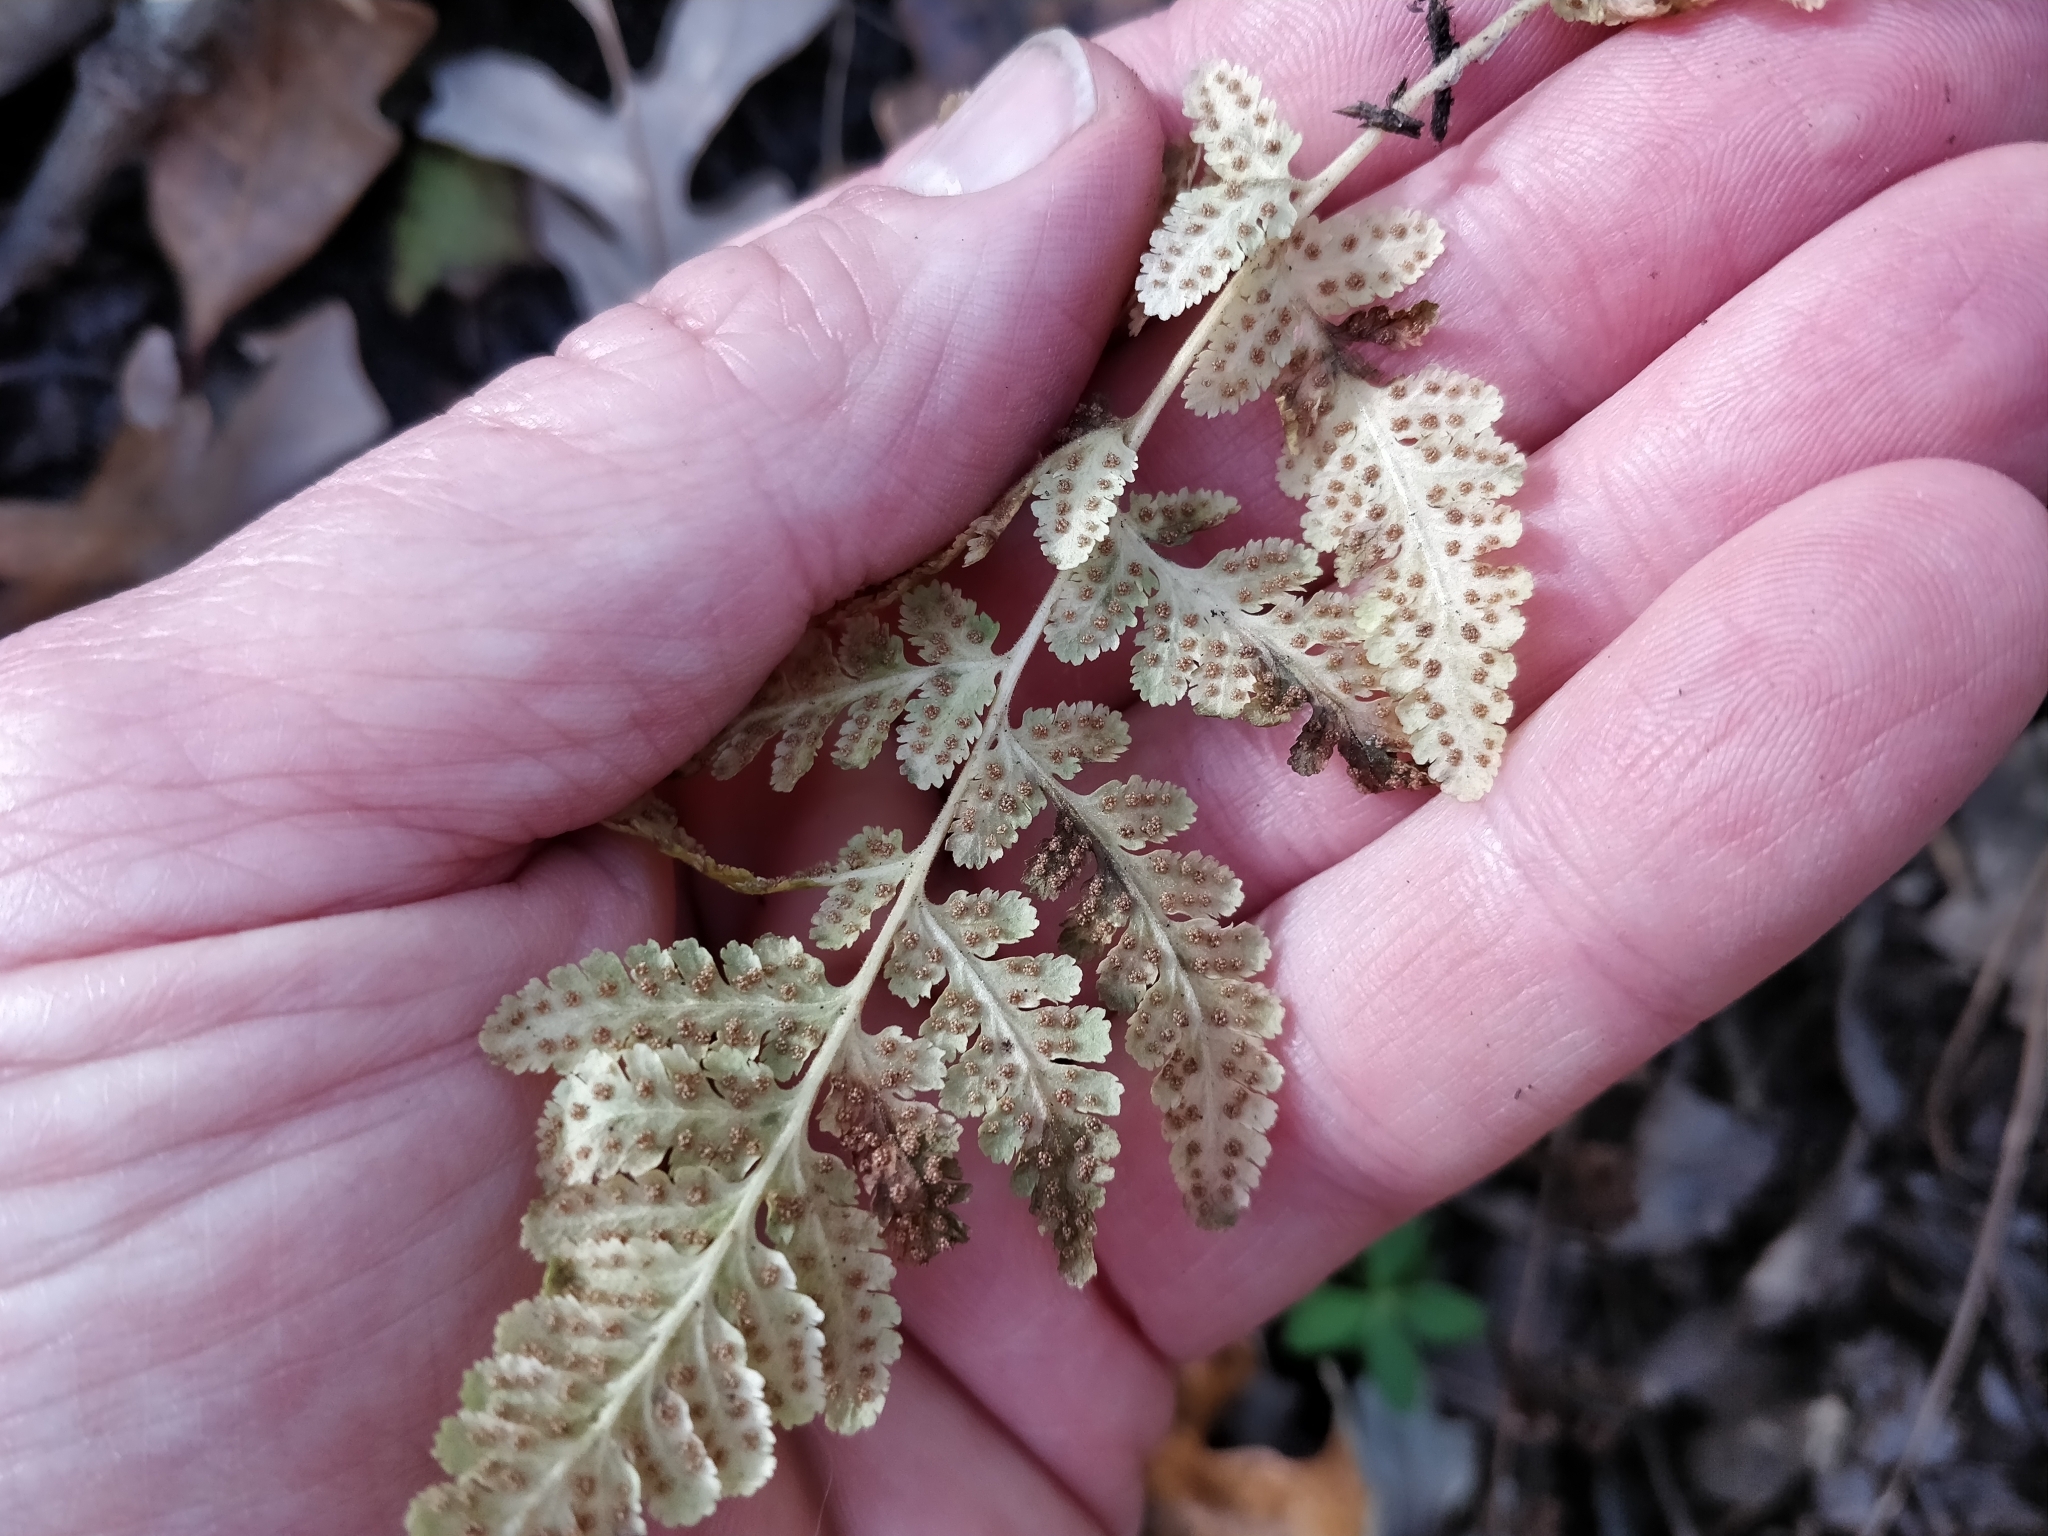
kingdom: Plantae
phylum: Tracheophyta
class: Polypodiopsida
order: Polypodiales
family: Woodsiaceae
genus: Physematium
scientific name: Physematium obtusum
